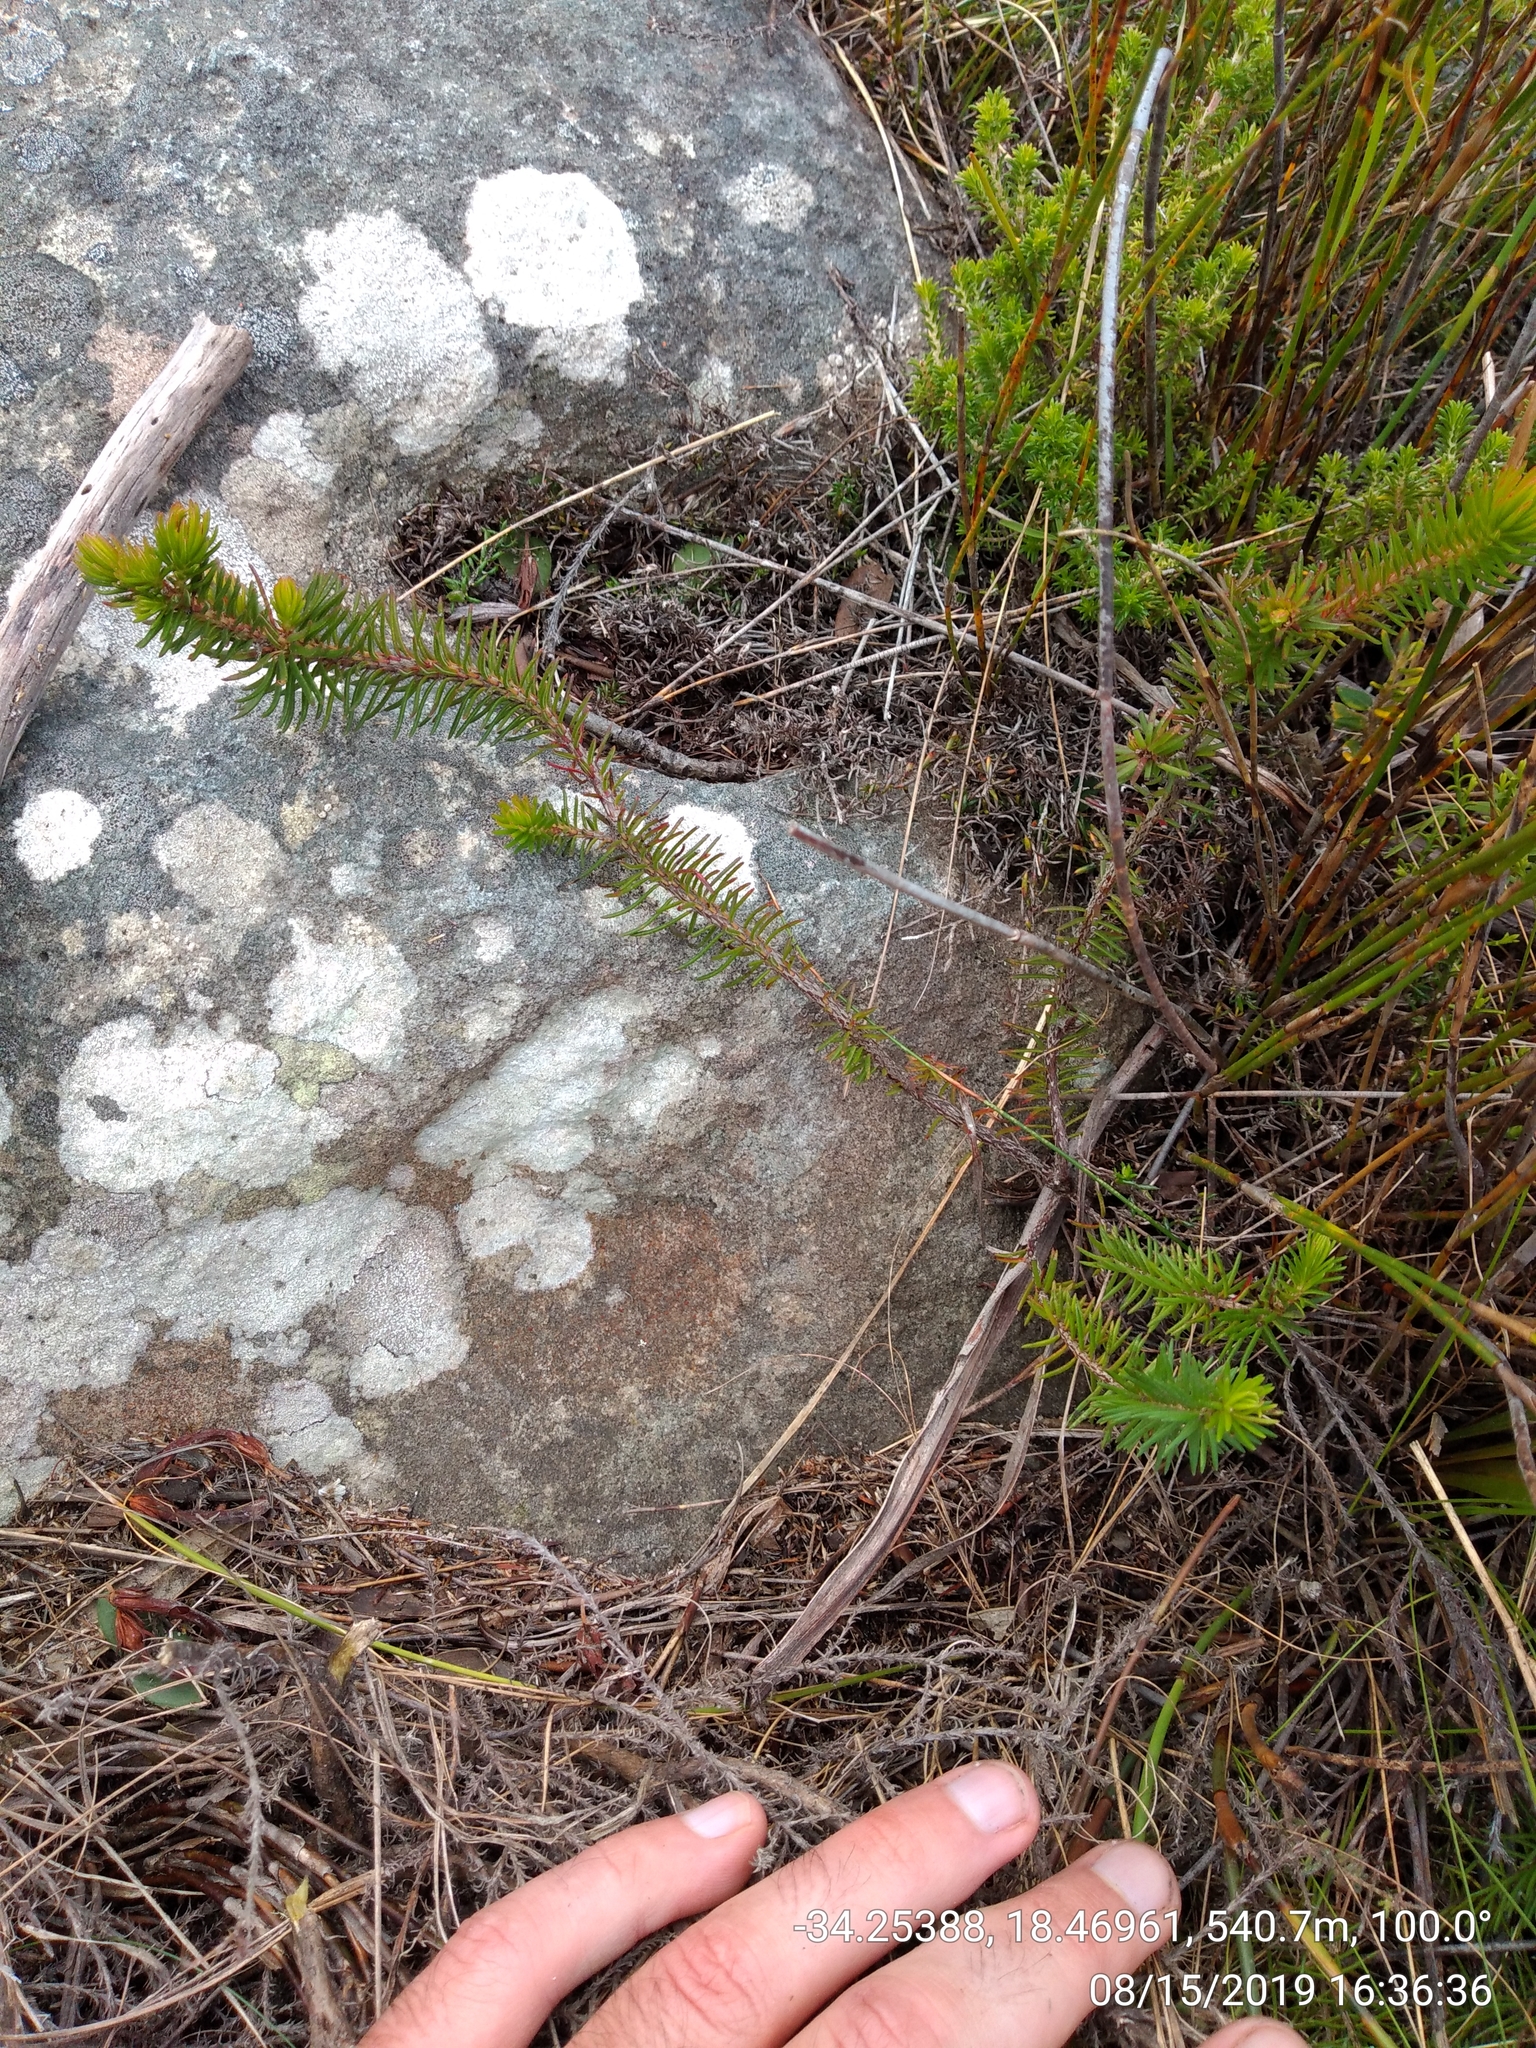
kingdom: Plantae
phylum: Tracheophyta
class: Magnoliopsida
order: Ericales
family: Ericaceae
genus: Erica
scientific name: Erica quadrisulcata
